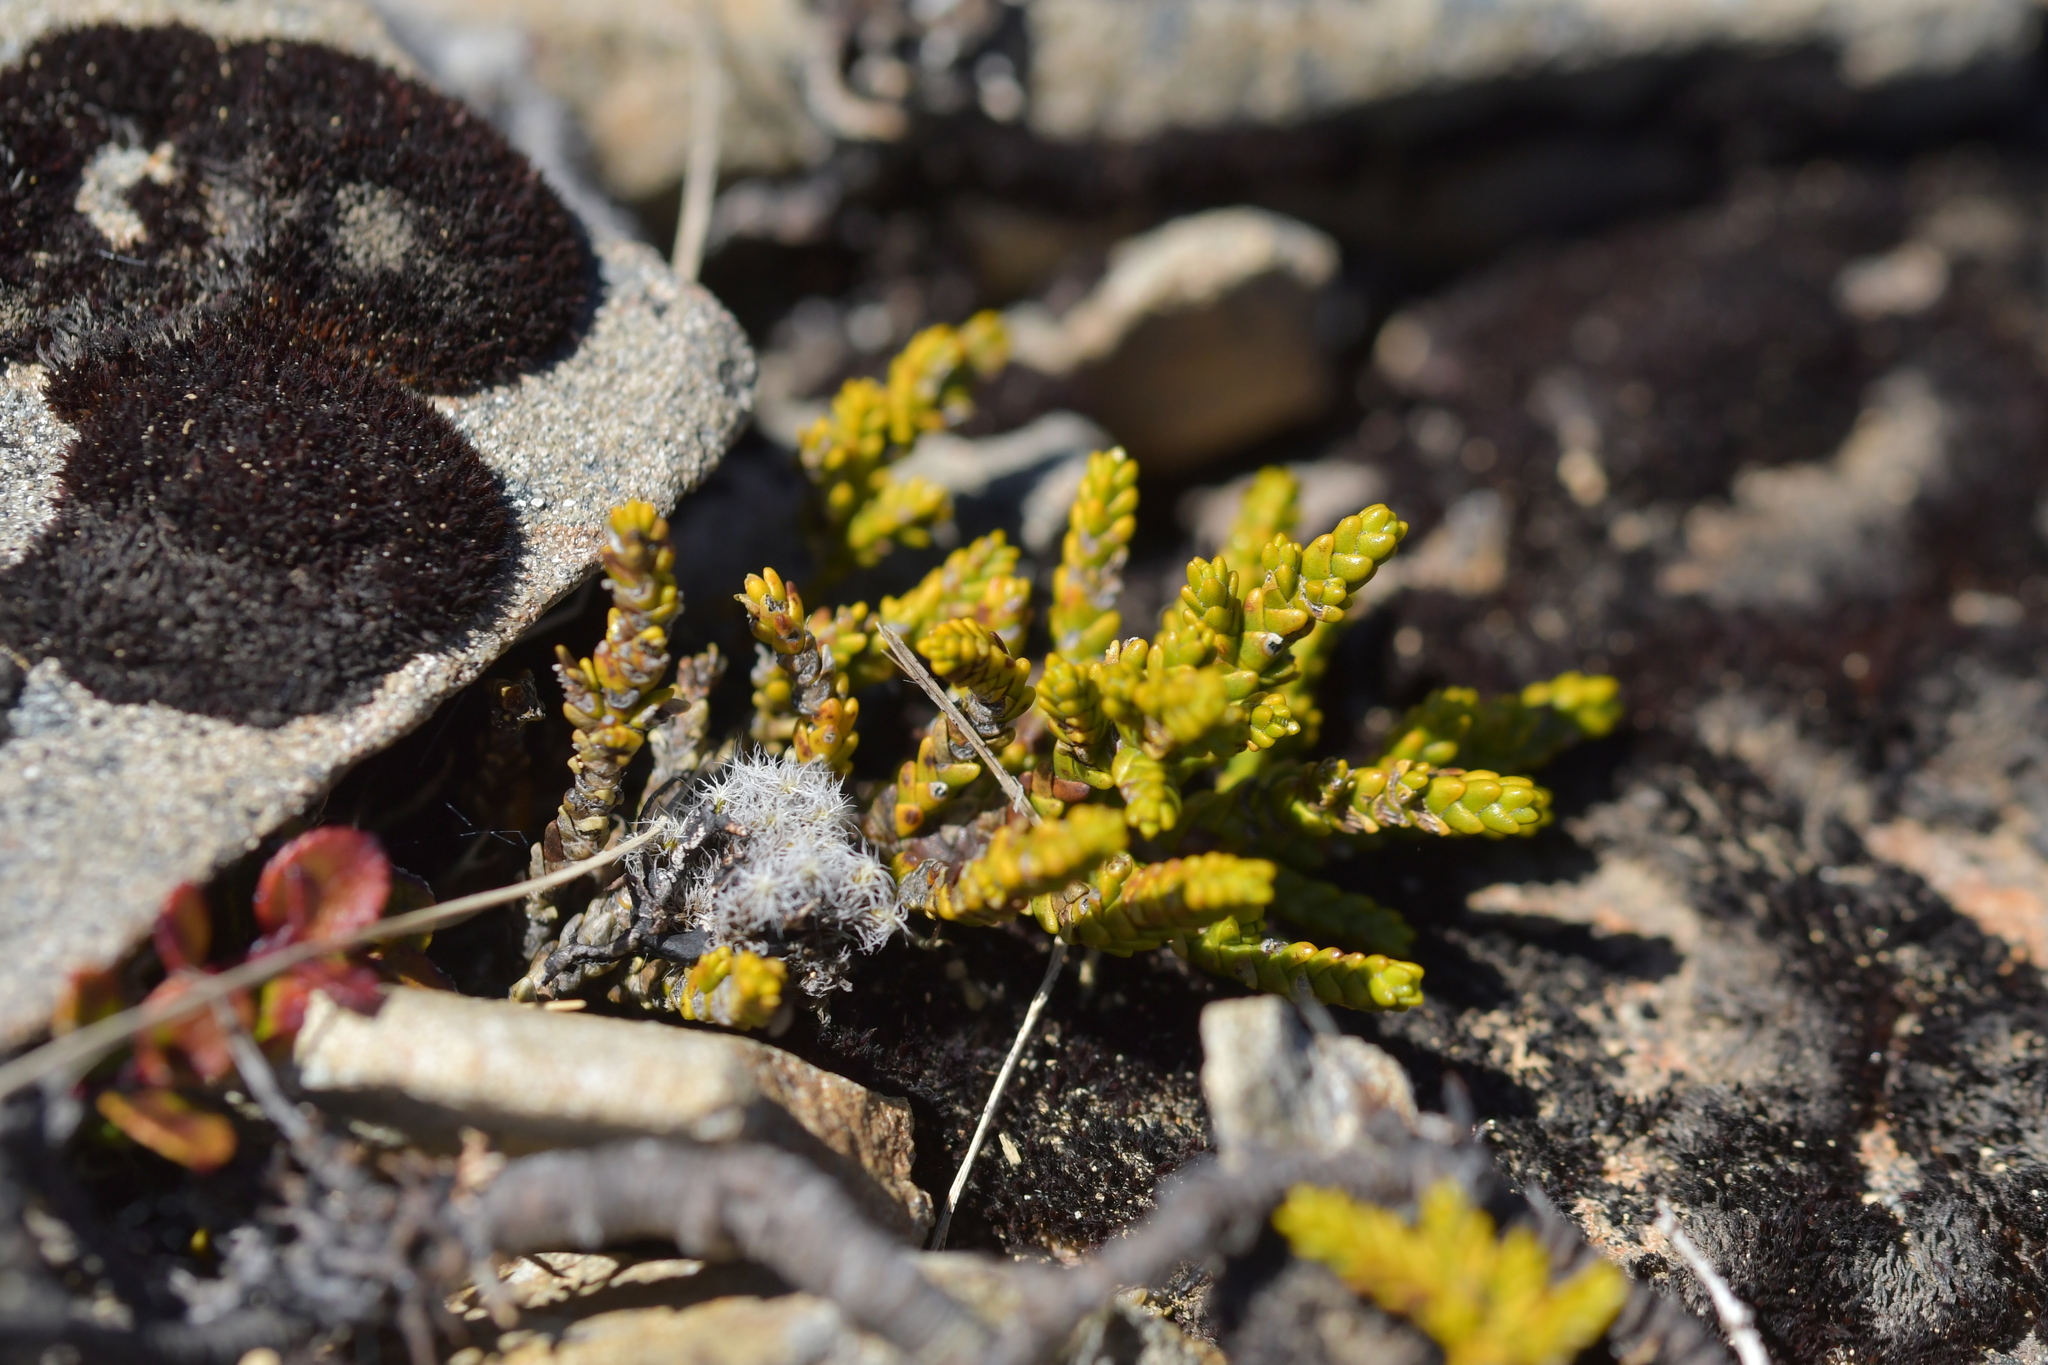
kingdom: Plantae
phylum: Tracheophyta
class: Magnoliopsida
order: Lamiales
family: Plantaginaceae
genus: Veronica
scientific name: Veronica tetragona
